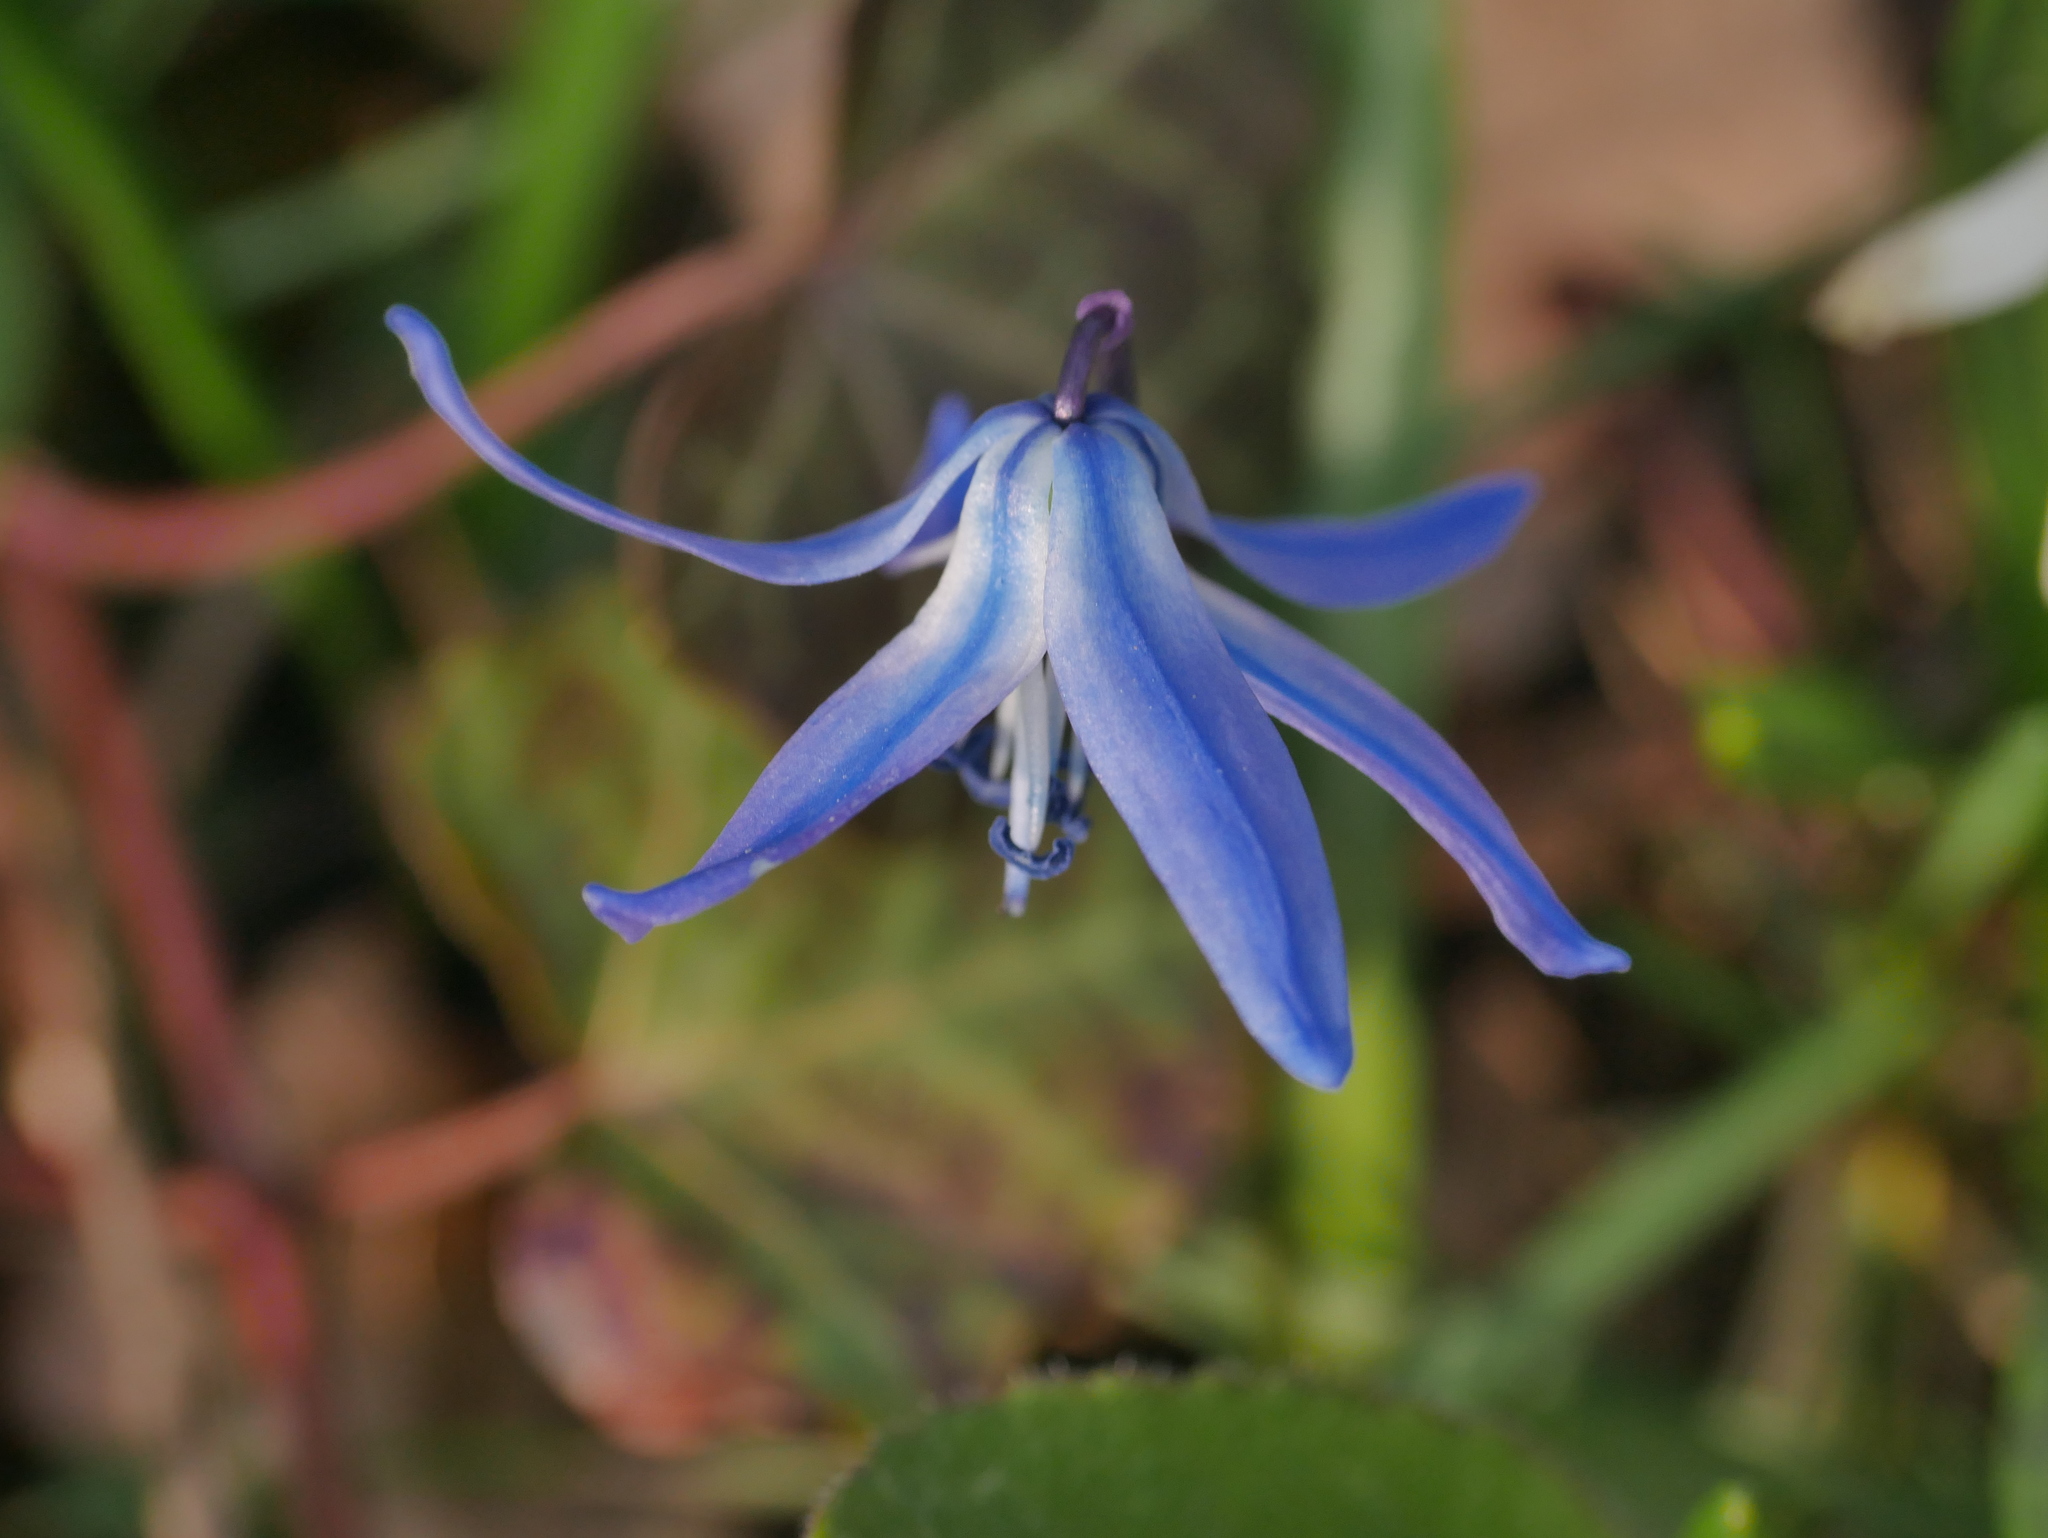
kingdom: Plantae
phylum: Tracheophyta
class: Liliopsida
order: Asparagales
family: Asparagaceae
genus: Scilla
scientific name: Scilla siberica
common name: Siberian squill
